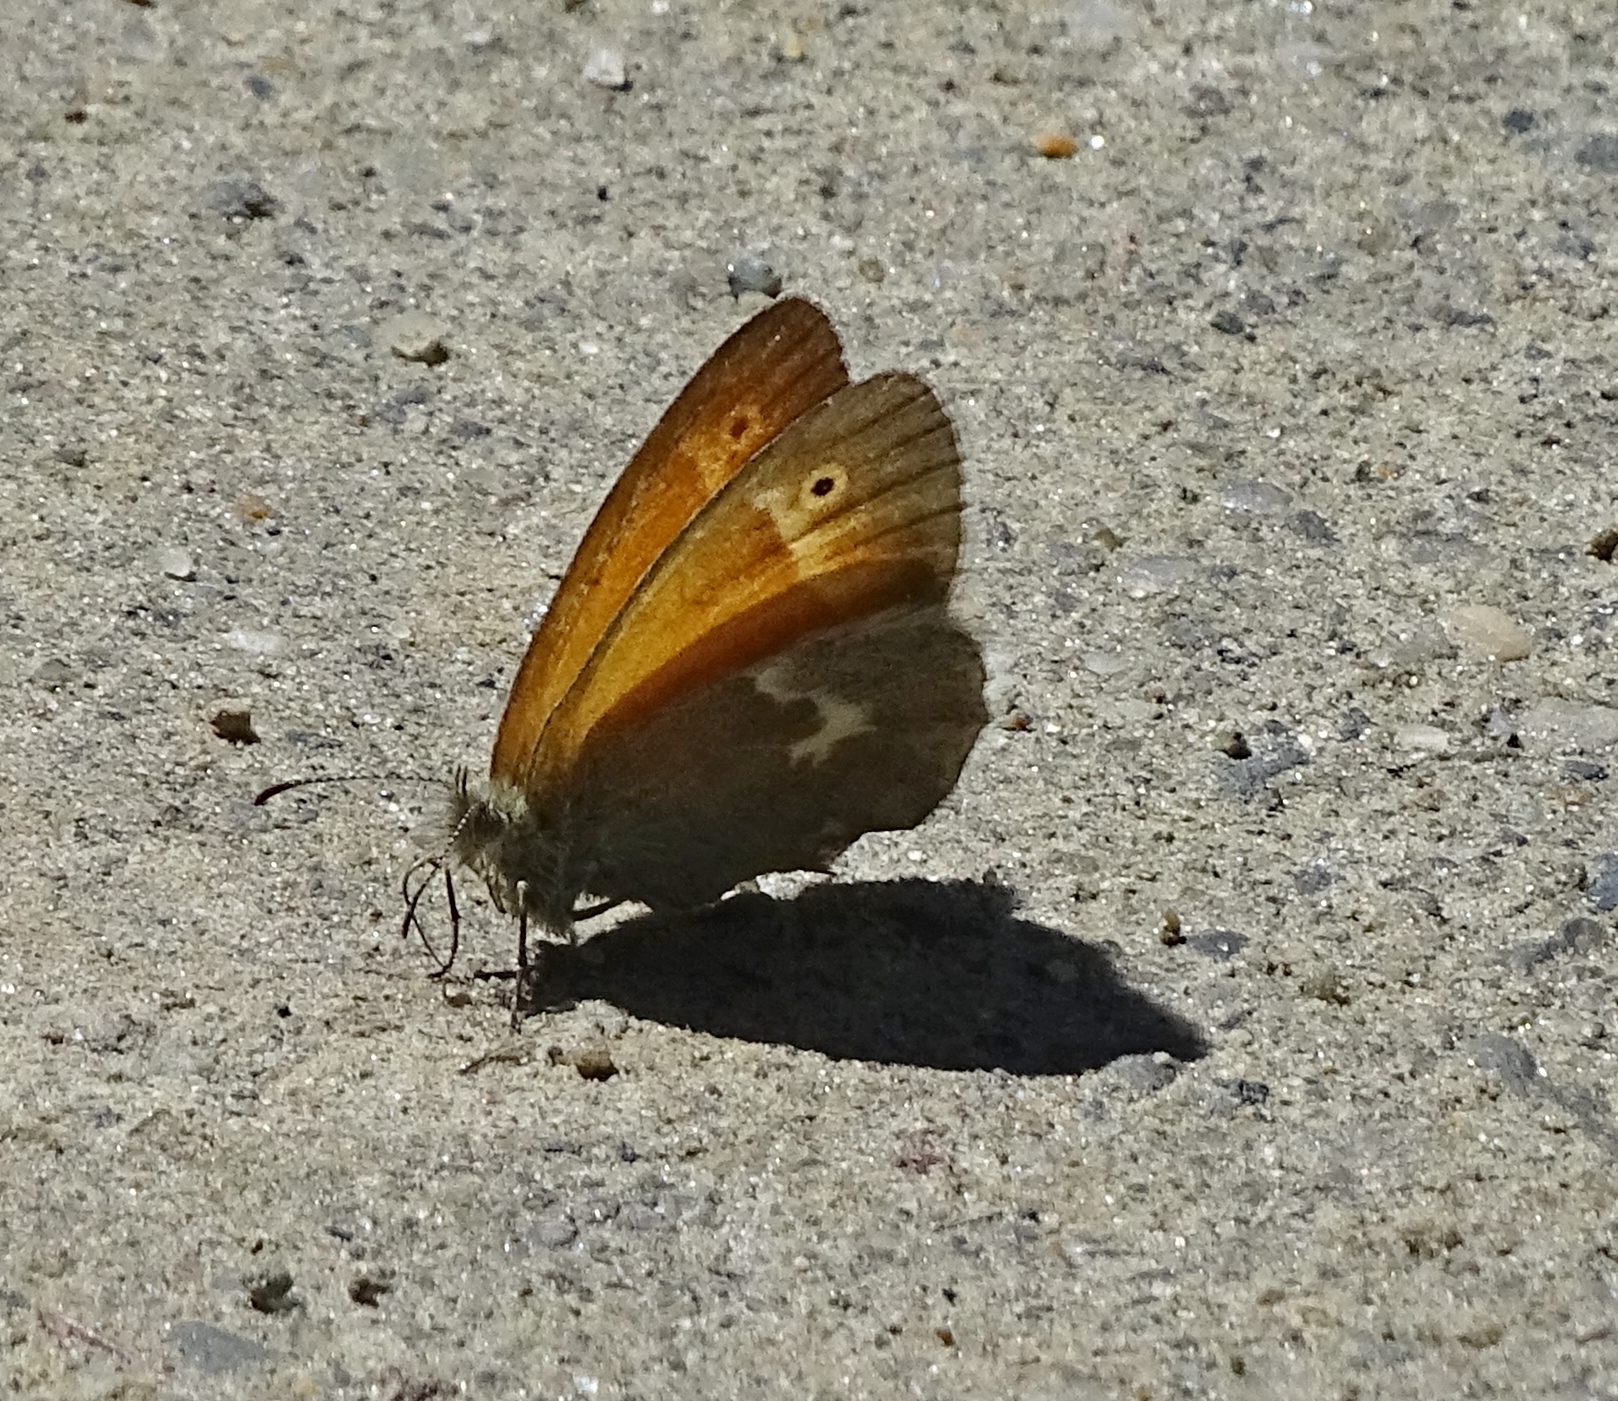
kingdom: Animalia
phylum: Arthropoda
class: Insecta
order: Lepidoptera
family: Nymphalidae
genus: Coenonympha
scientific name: Coenonympha california
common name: Common ringlet
